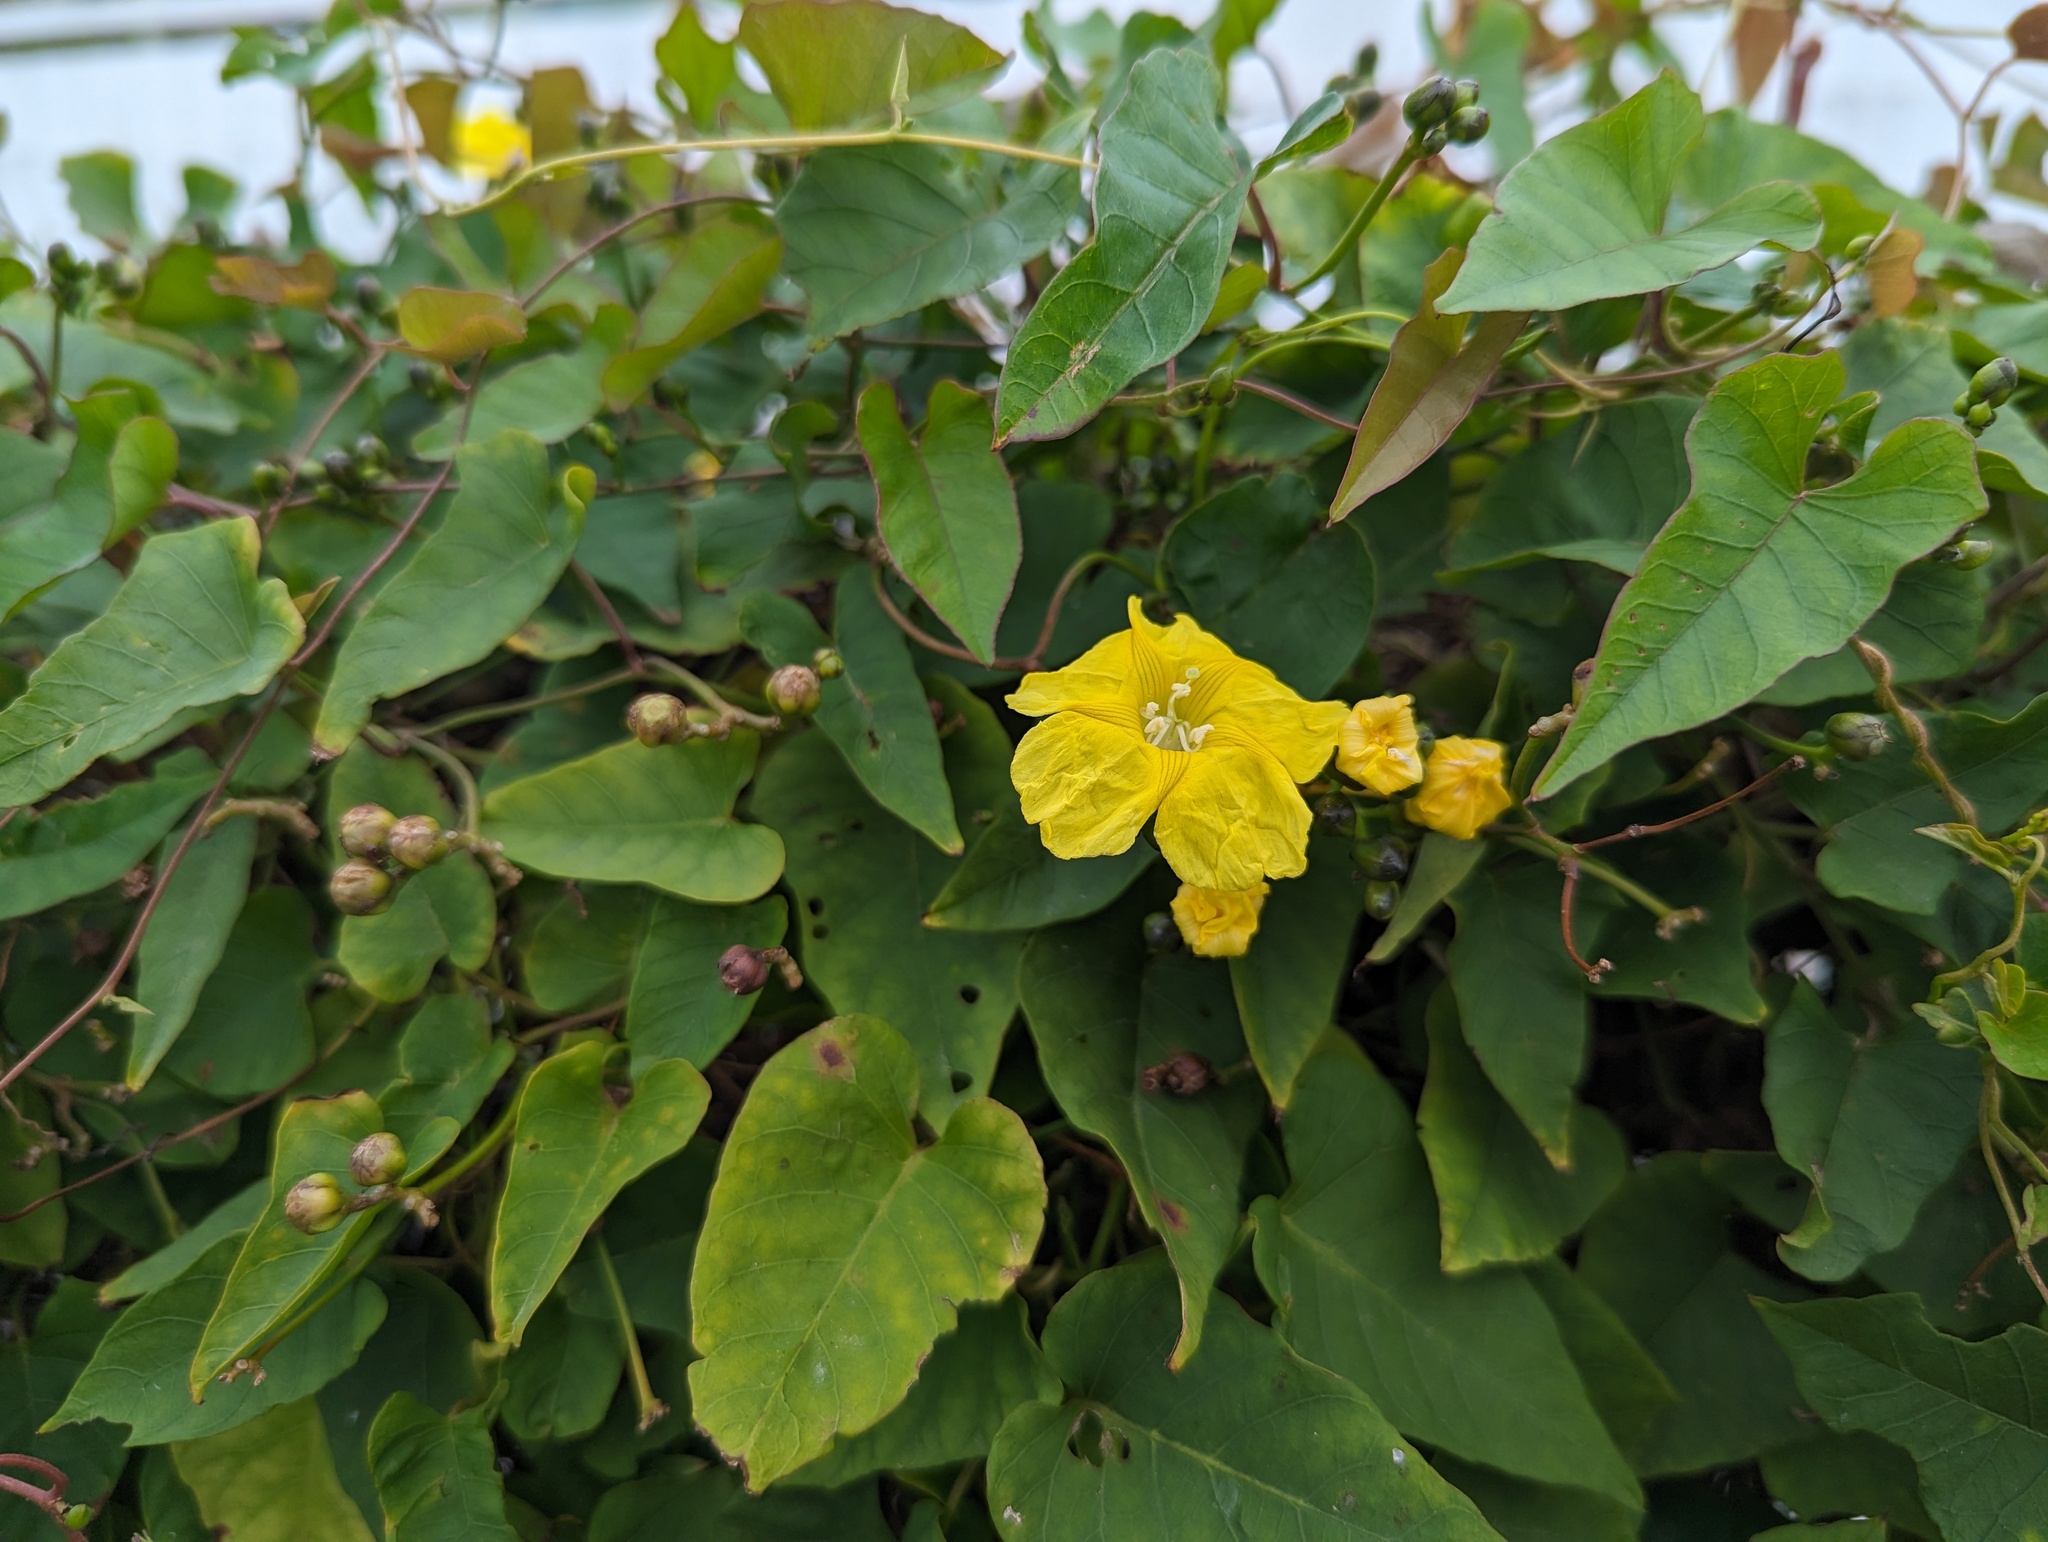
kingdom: Plantae
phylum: Tracheophyta
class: Magnoliopsida
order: Solanales
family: Convolvulaceae
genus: Merremia
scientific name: Merremia gemella
